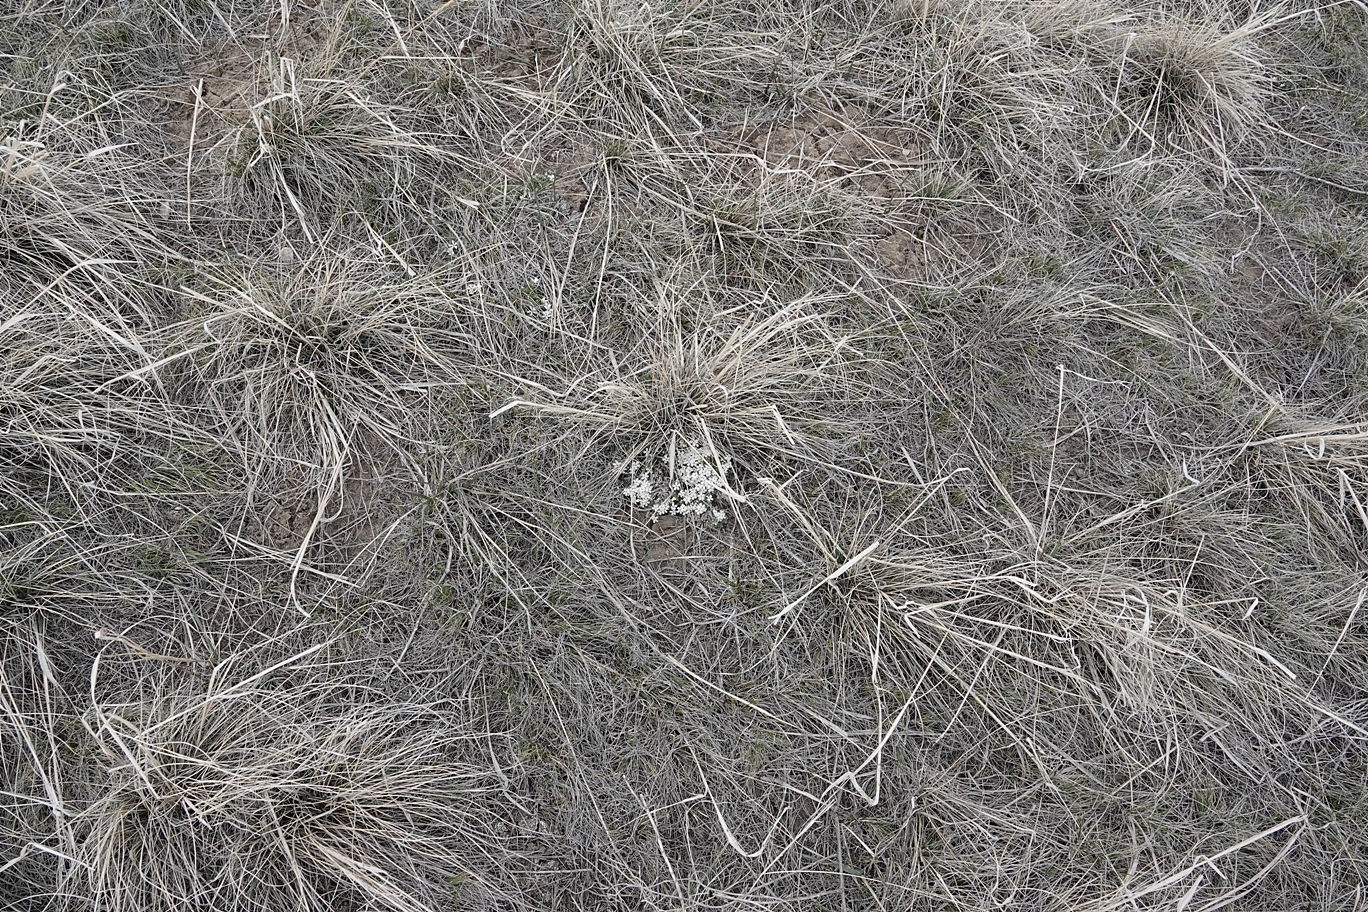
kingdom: Plantae
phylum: Tracheophyta
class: Magnoliopsida
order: Ericales
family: Polemoniaceae
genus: Phlox
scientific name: Phlox hoodii
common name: Moss phlox
